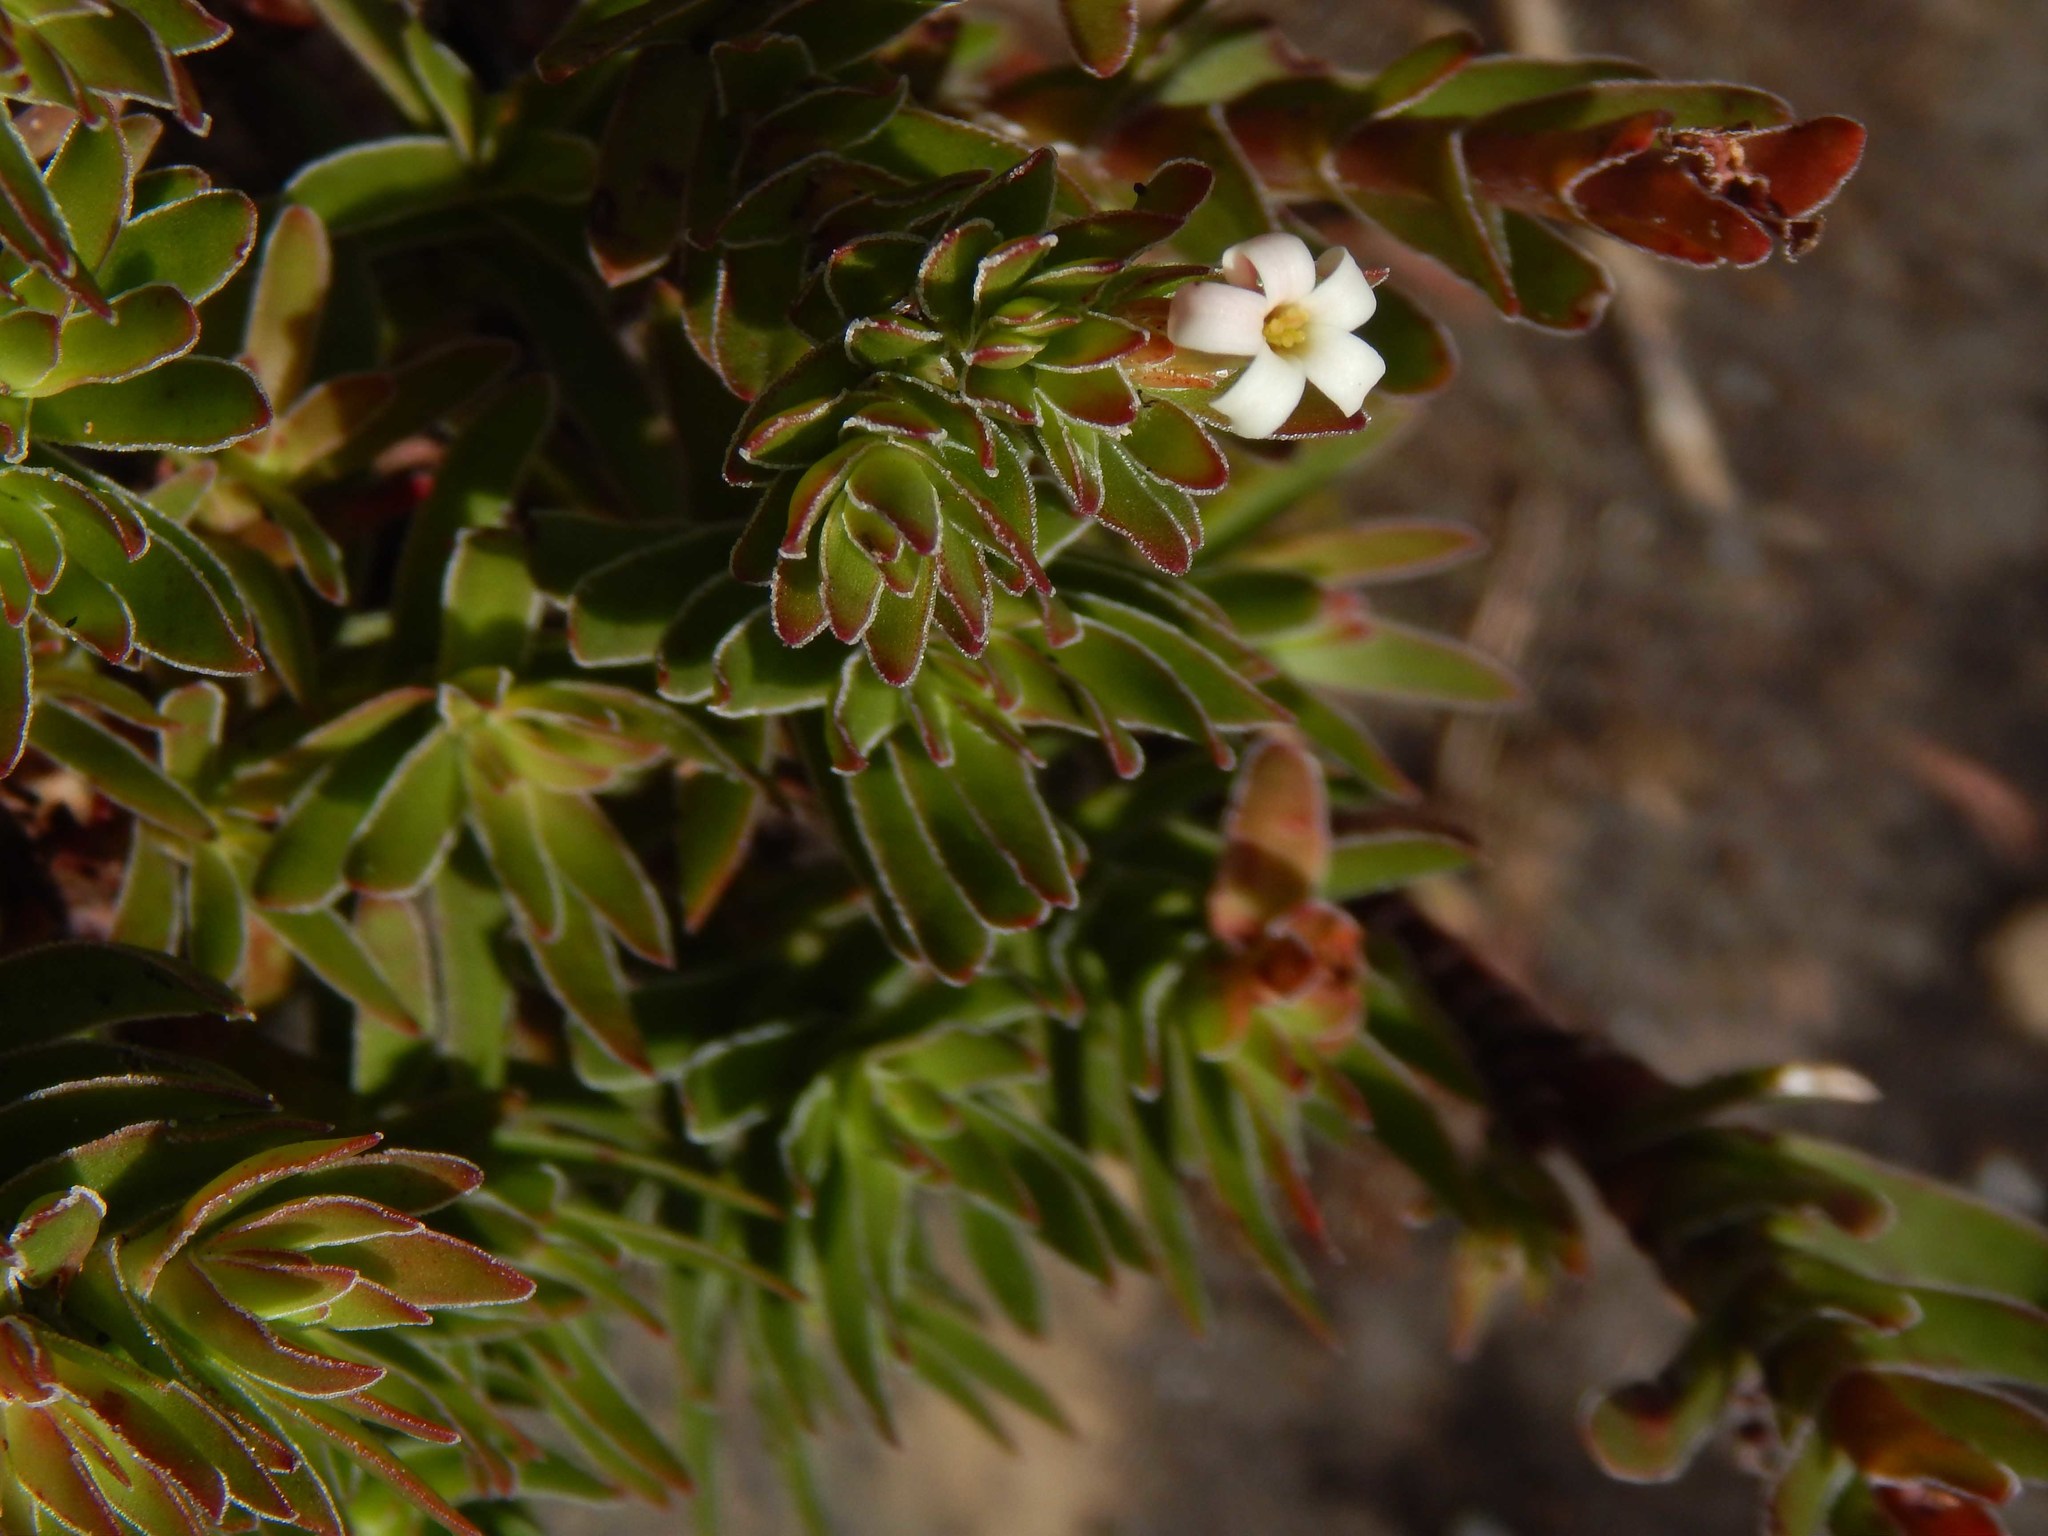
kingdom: Plantae
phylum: Tracheophyta
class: Magnoliopsida
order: Saxifragales
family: Crassulaceae
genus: Crassula
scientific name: Crassula fascicularis
